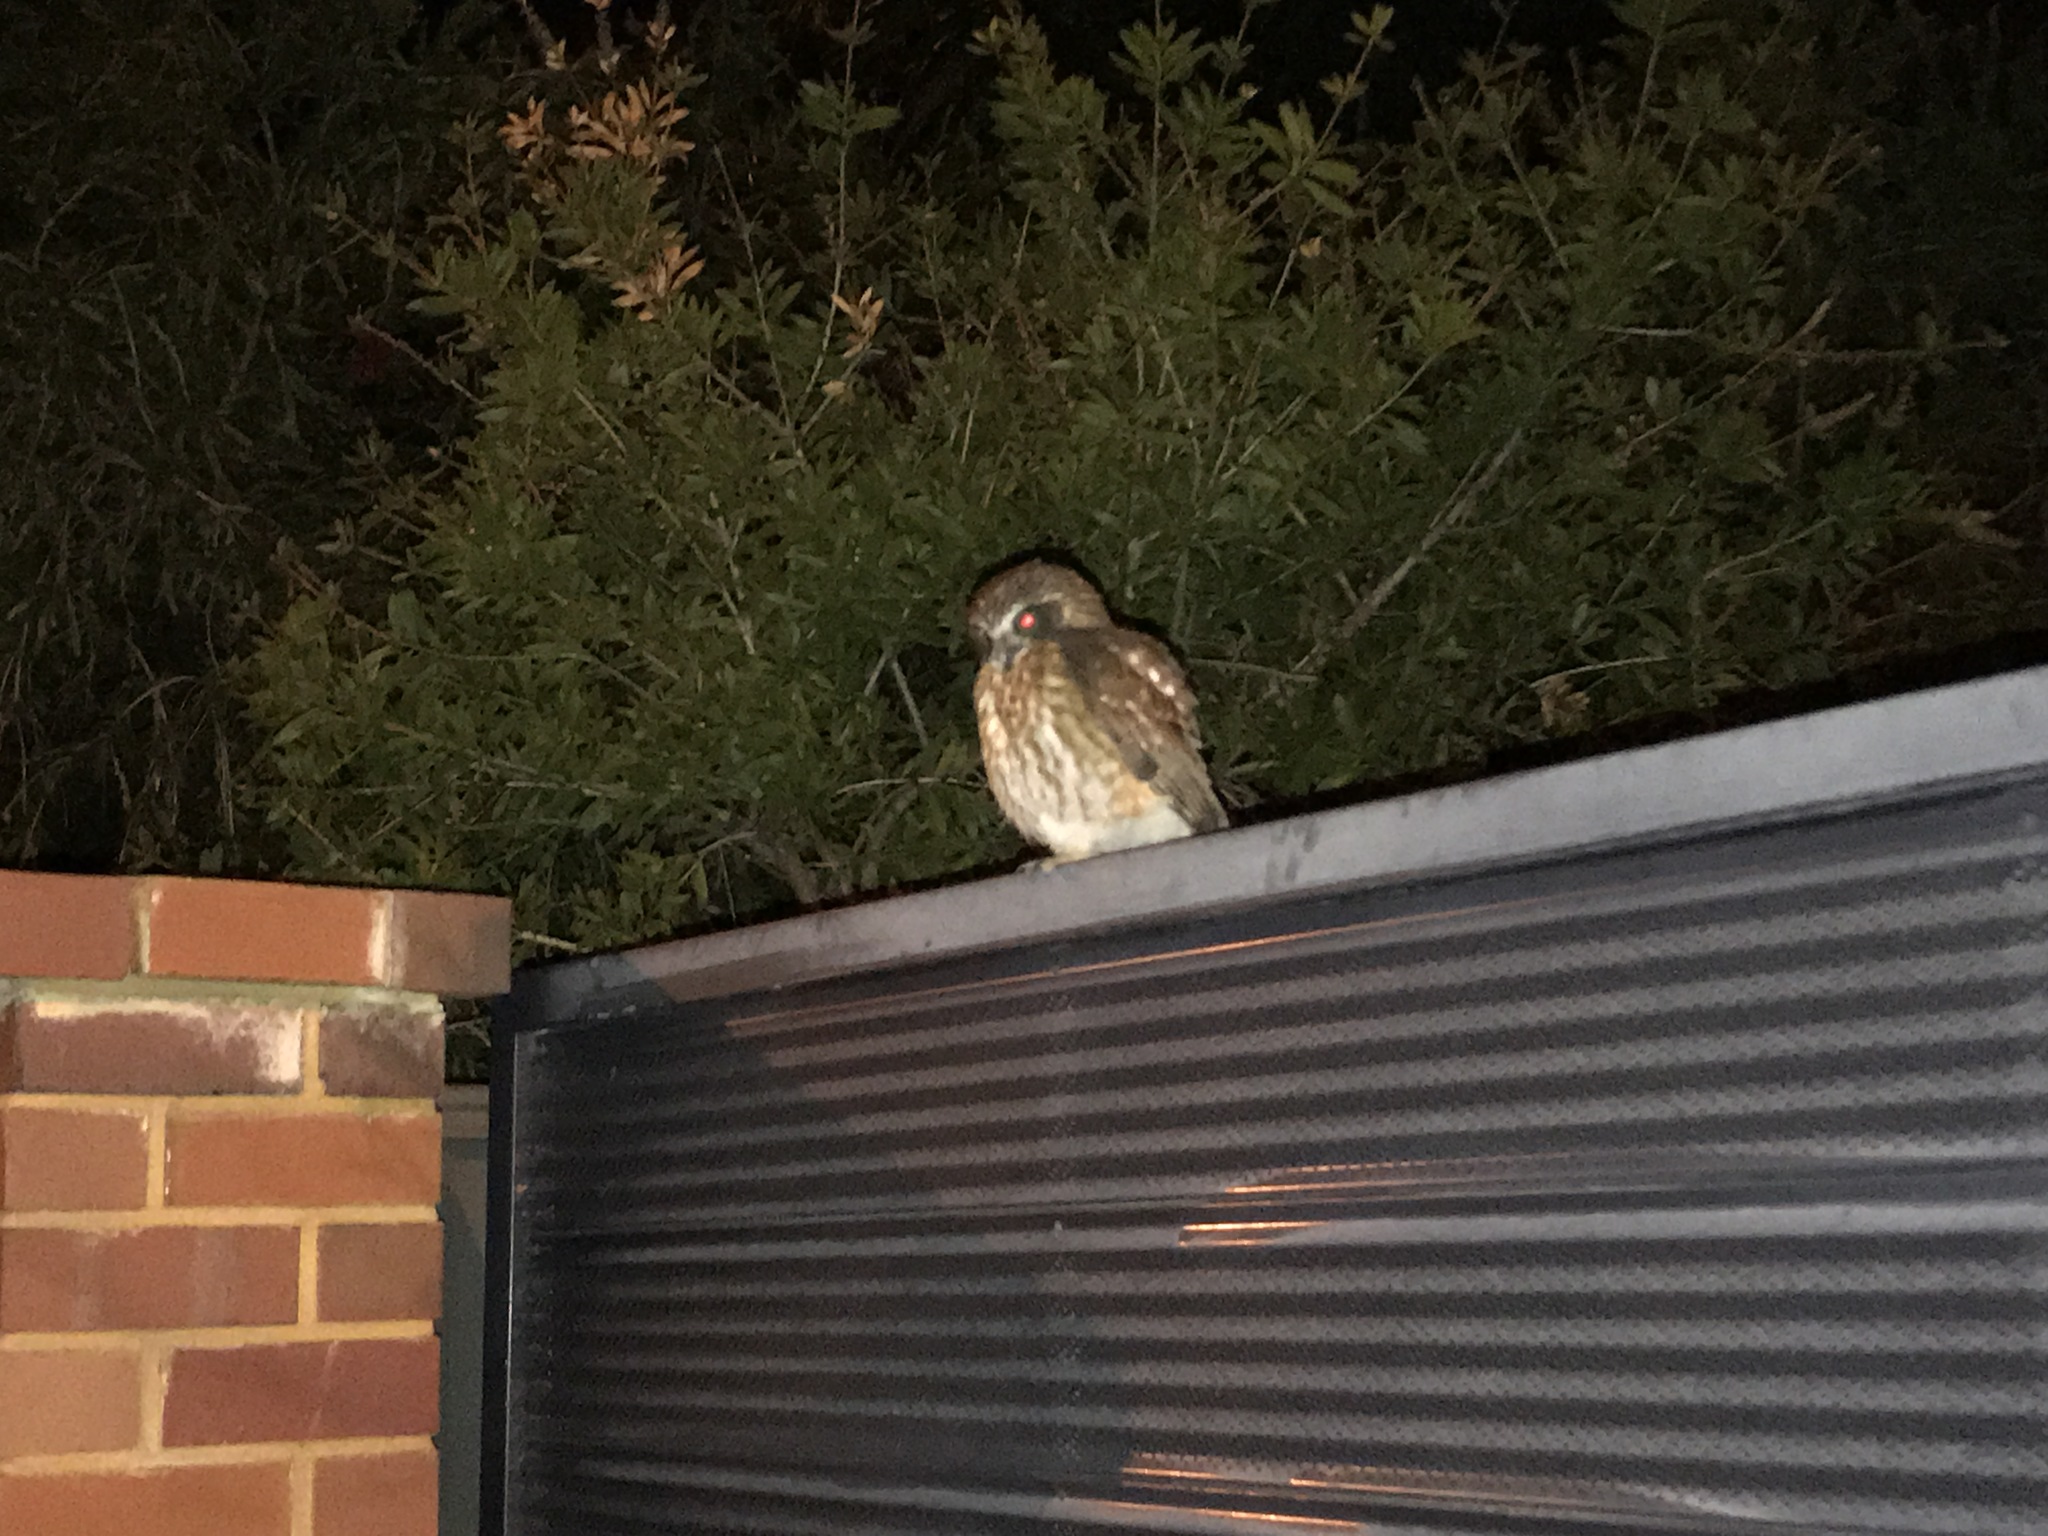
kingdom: Animalia
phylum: Chordata
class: Aves
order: Strigiformes
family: Strigidae
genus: Ninox
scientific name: Ninox boobook
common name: Southern boobook
